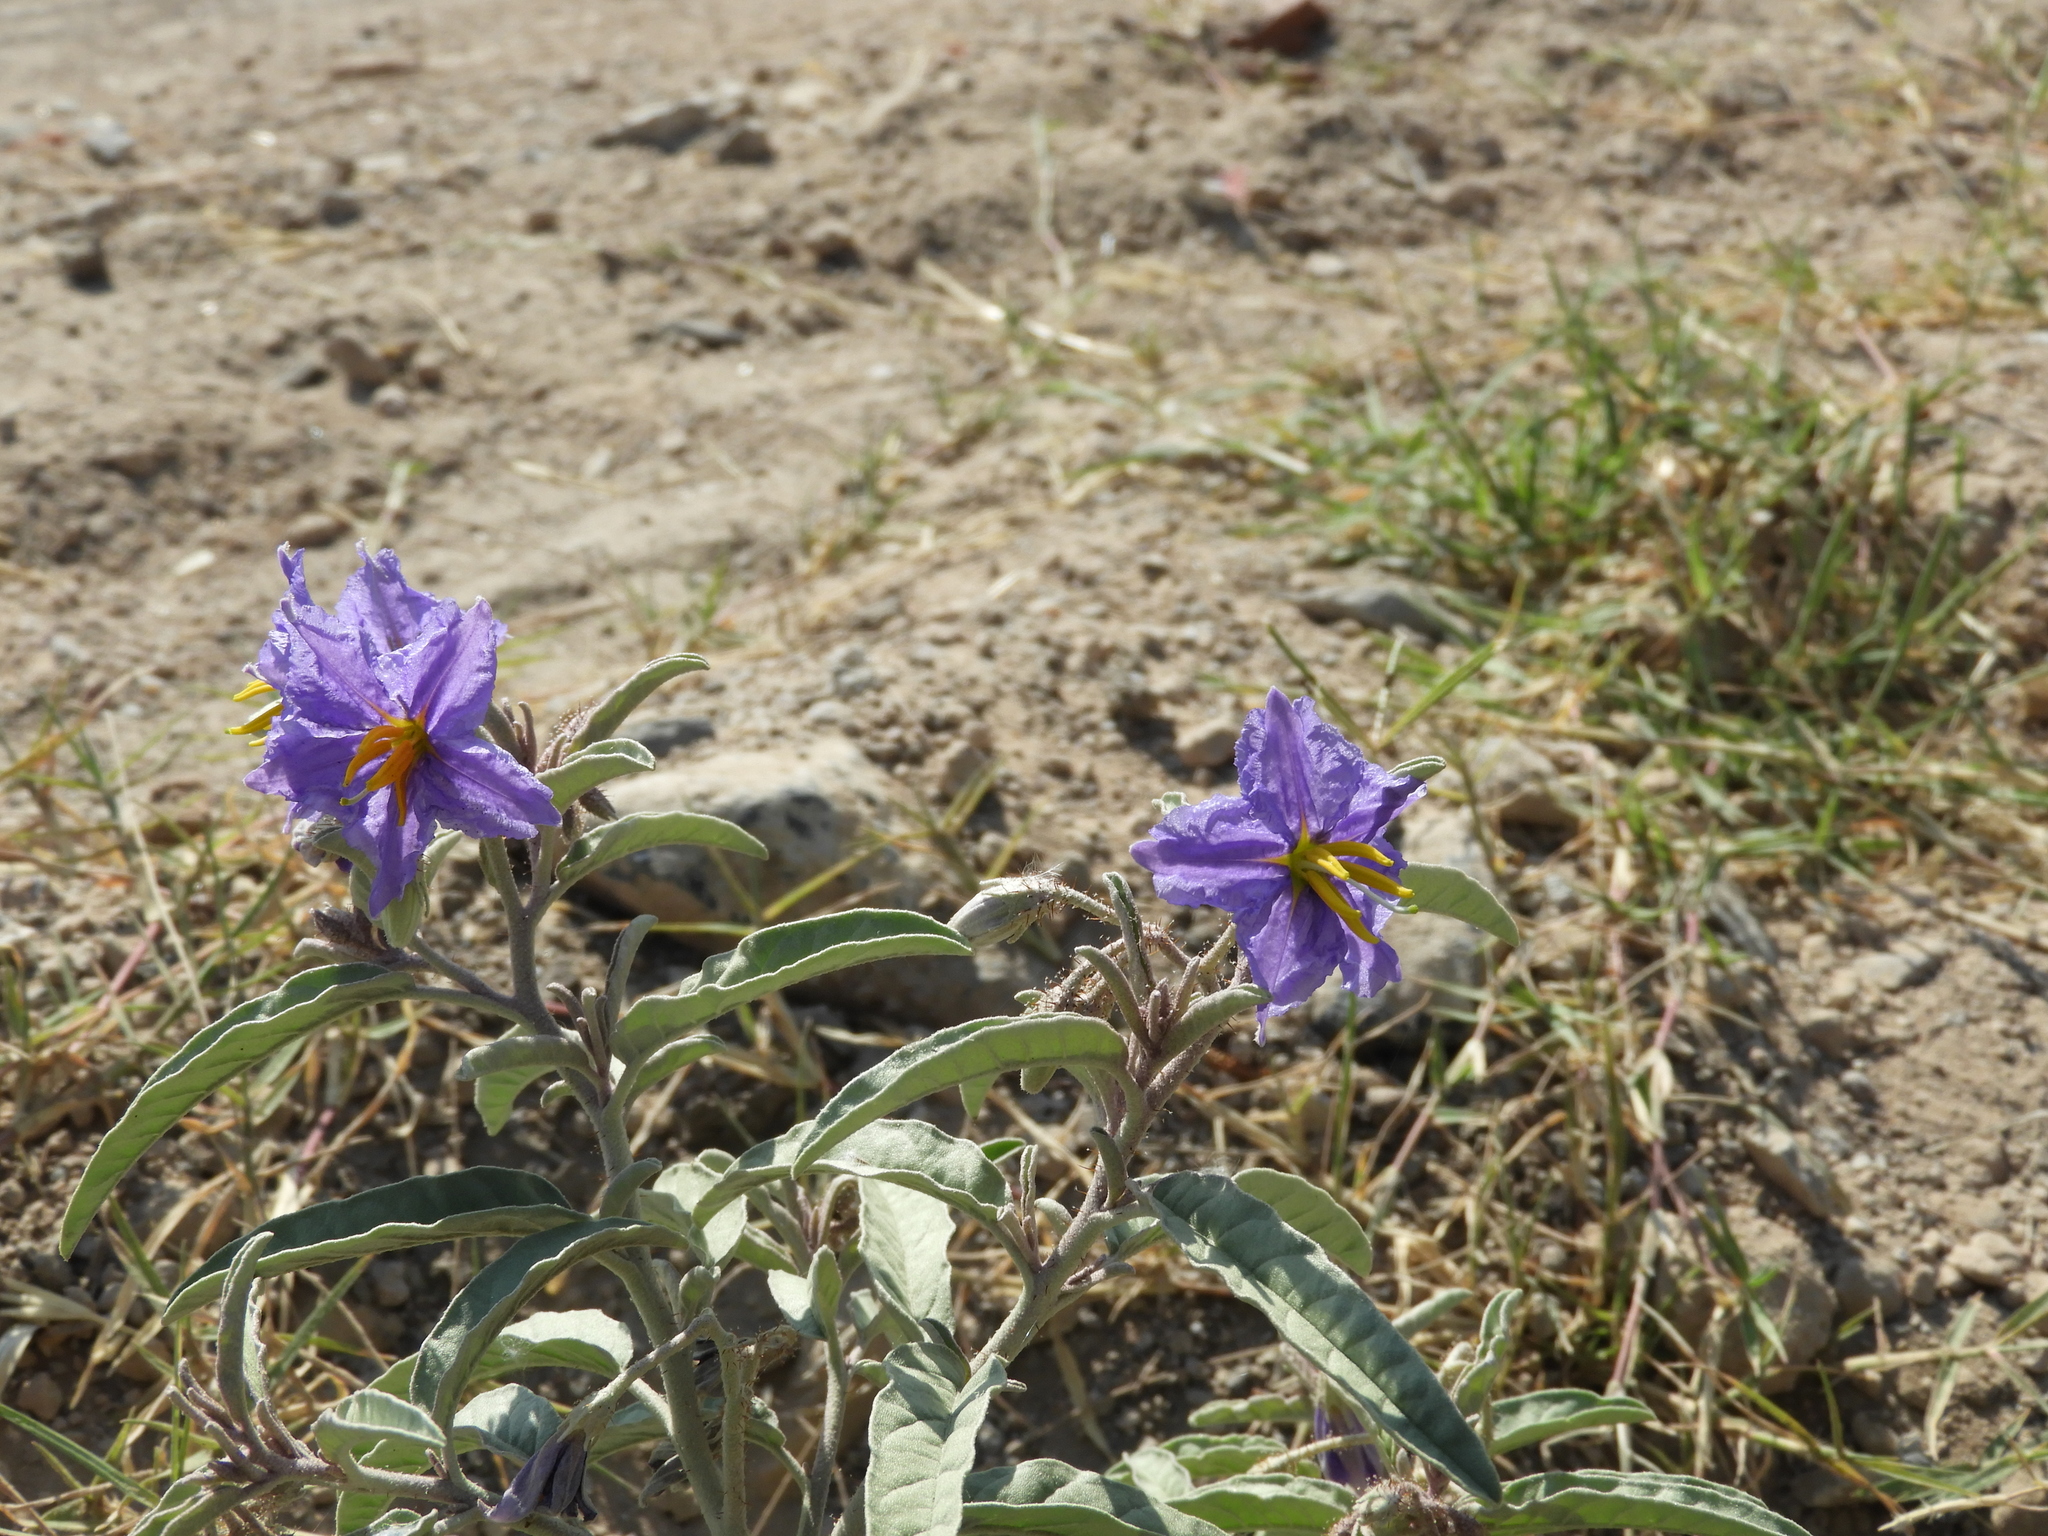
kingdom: Plantae
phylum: Tracheophyta
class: Magnoliopsida
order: Solanales
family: Solanaceae
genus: Solanum
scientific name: Solanum elaeagnifolium
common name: Silverleaf nightshade
